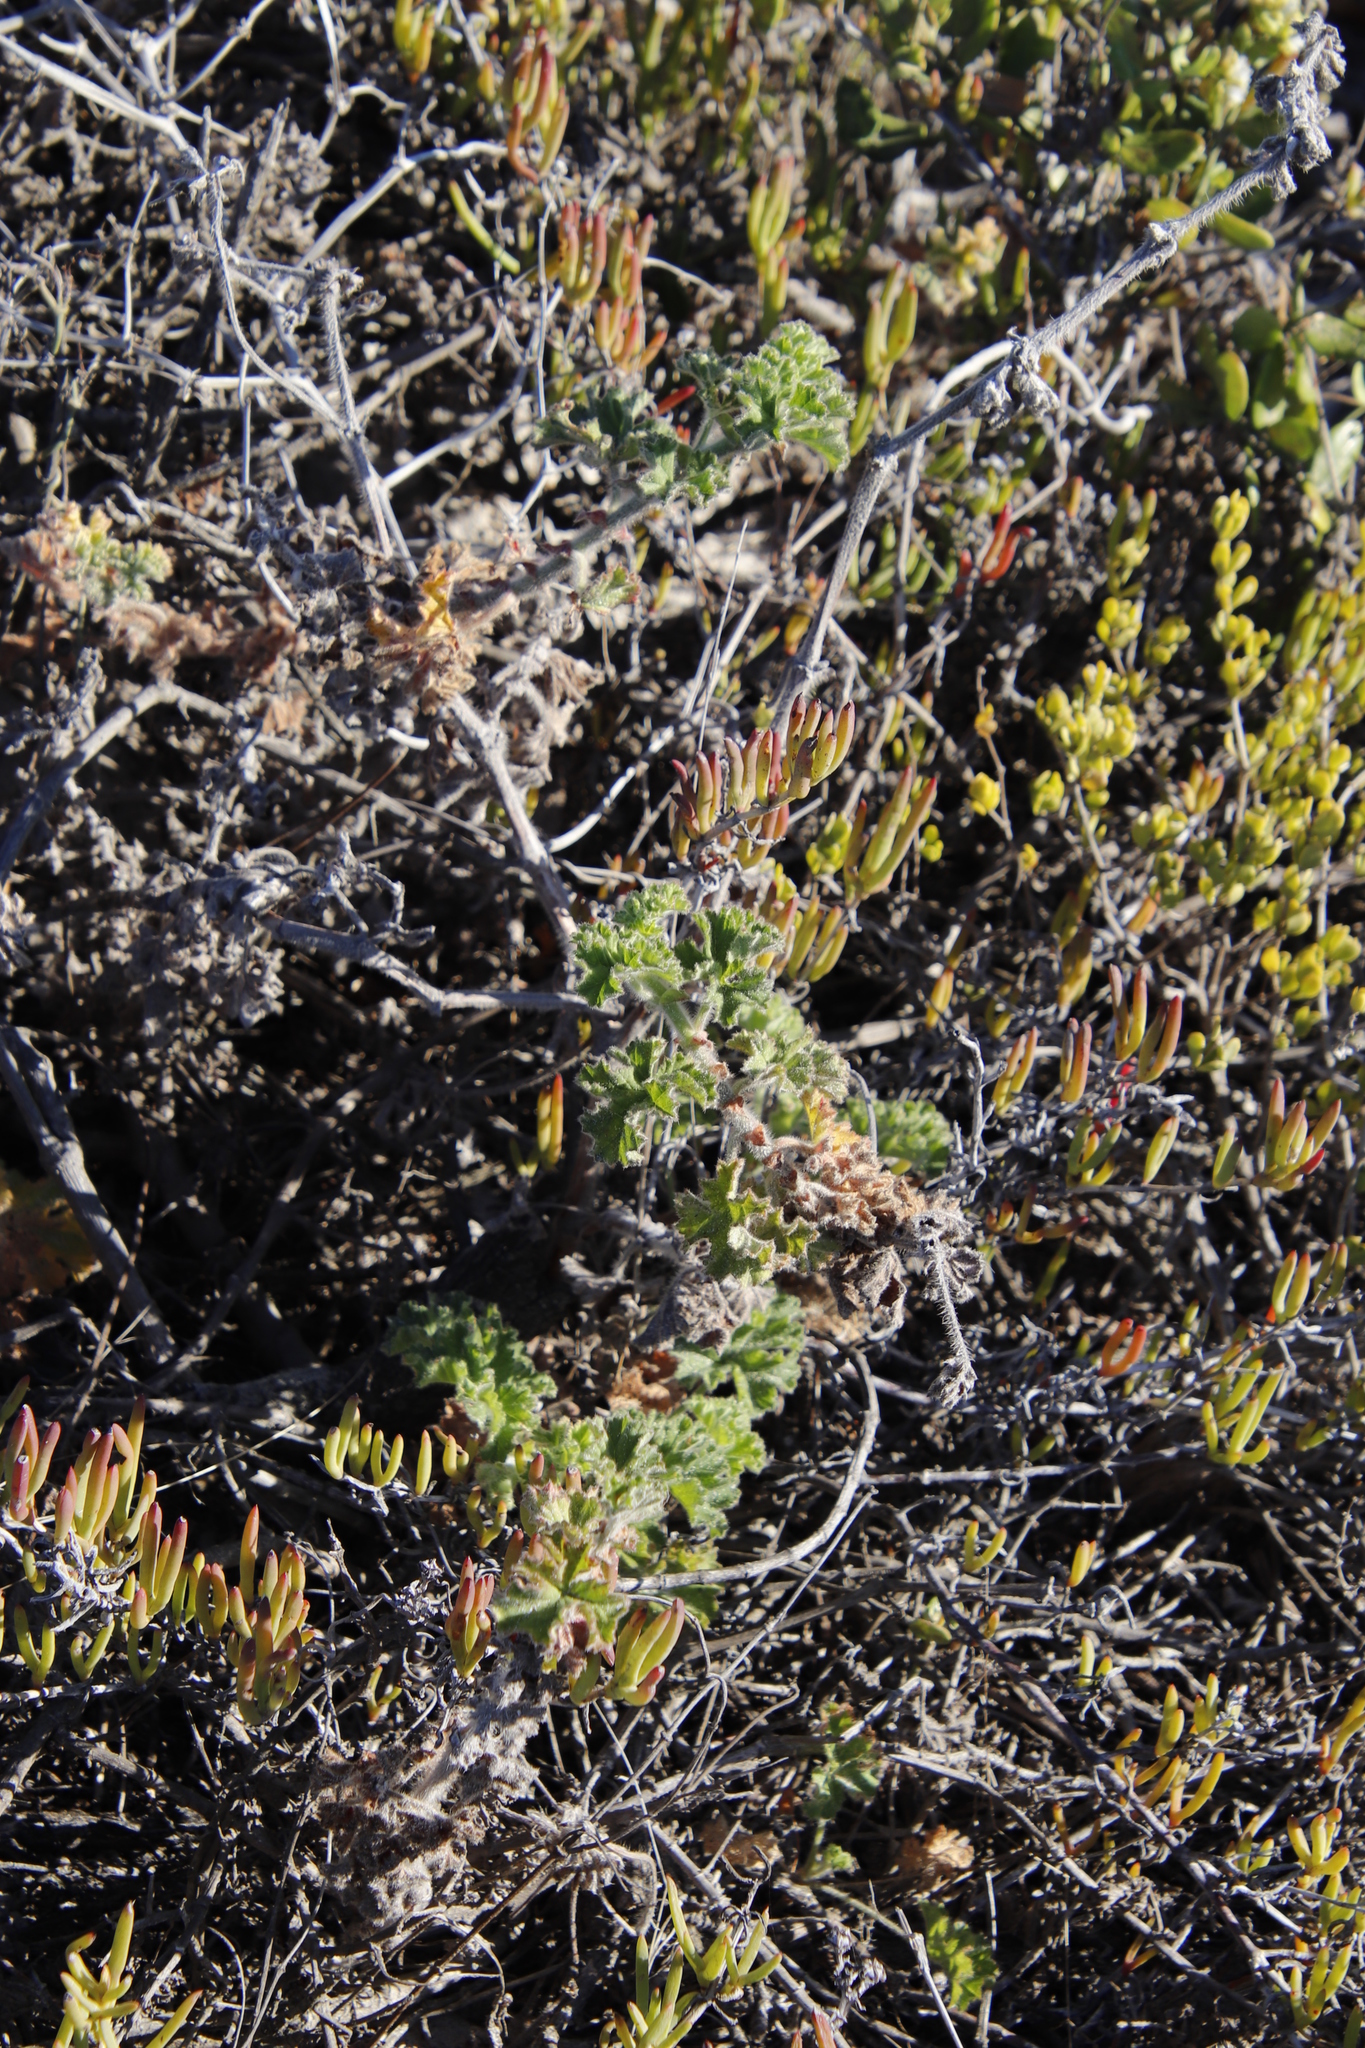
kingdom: Plantae
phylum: Tracheophyta
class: Magnoliopsida
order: Geraniales
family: Geraniaceae
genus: Pelargonium
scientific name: Pelargonium capitatum
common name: Rose scented geranium
